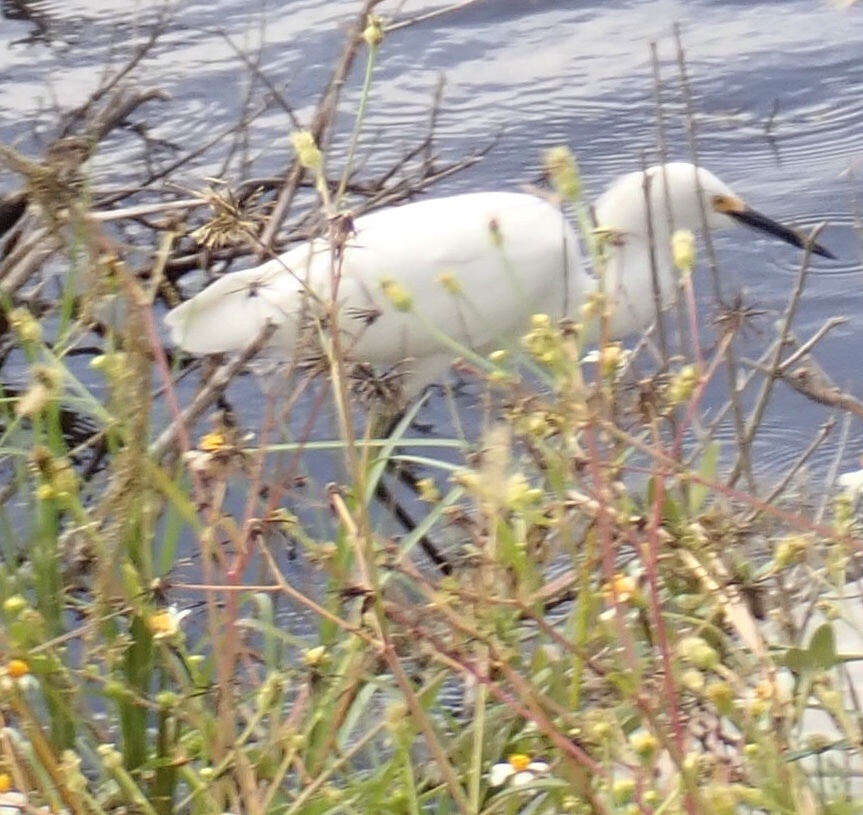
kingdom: Animalia
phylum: Chordata
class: Aves
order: Pelecaniformes
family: Ardeidae
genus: Egretta
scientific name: Egretta thula
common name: Snowy egret
